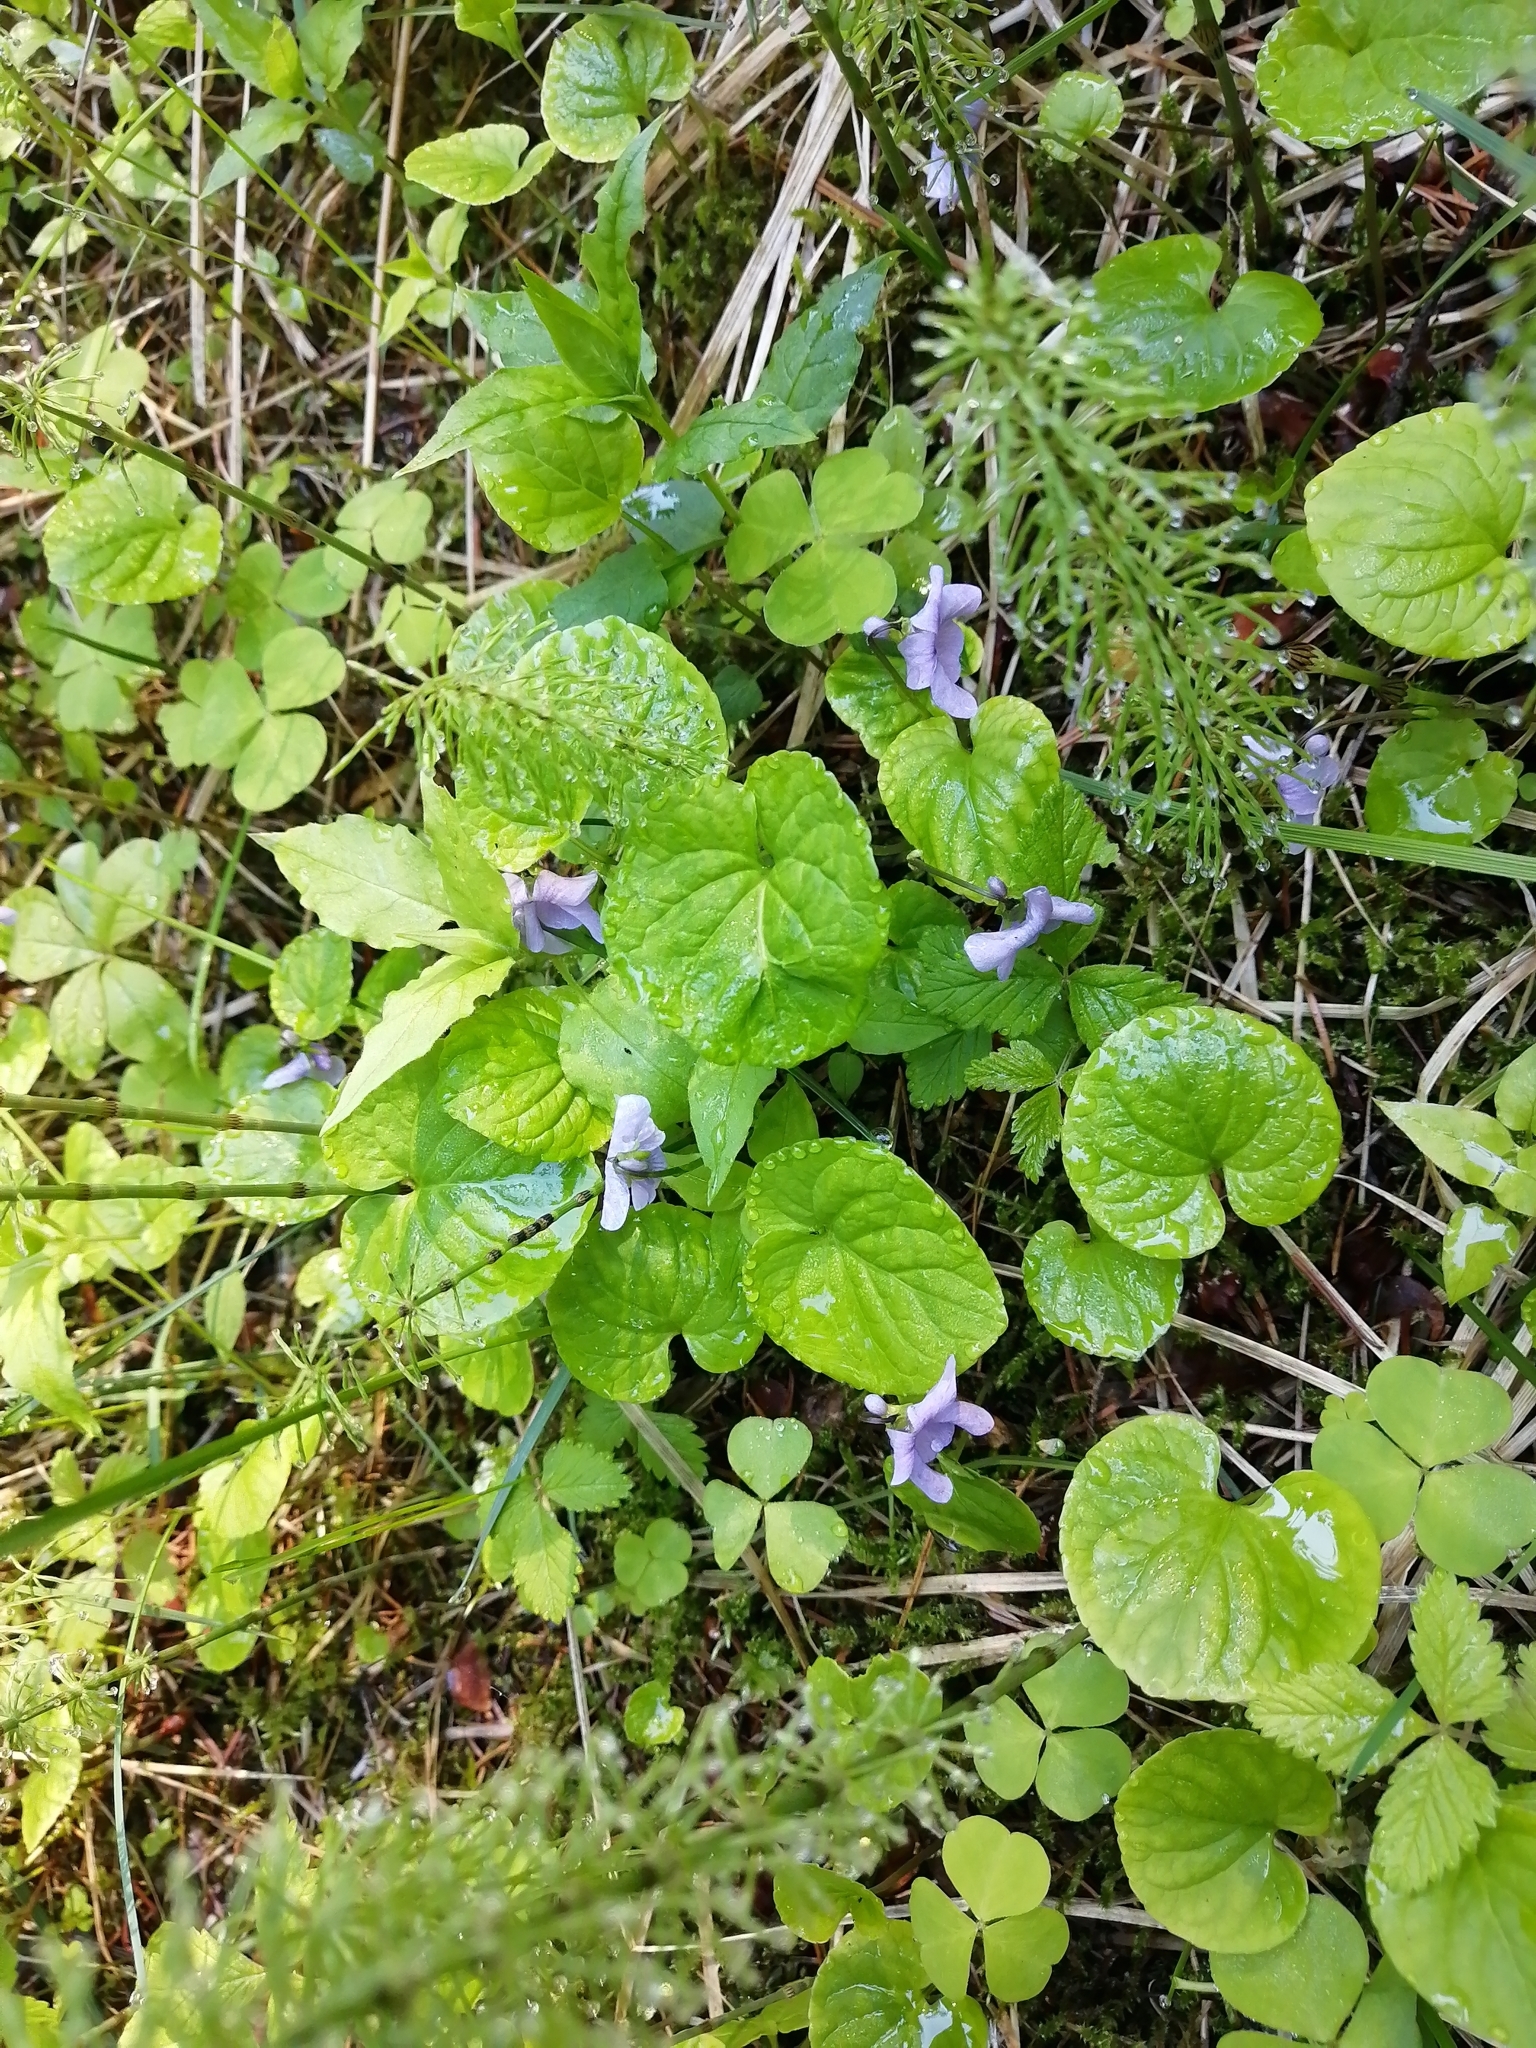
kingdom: Plantae
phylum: Tracheophyta
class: Magnoliopsida
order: Malpighiales
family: Violaceae
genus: Viola
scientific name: Viola epipsila
